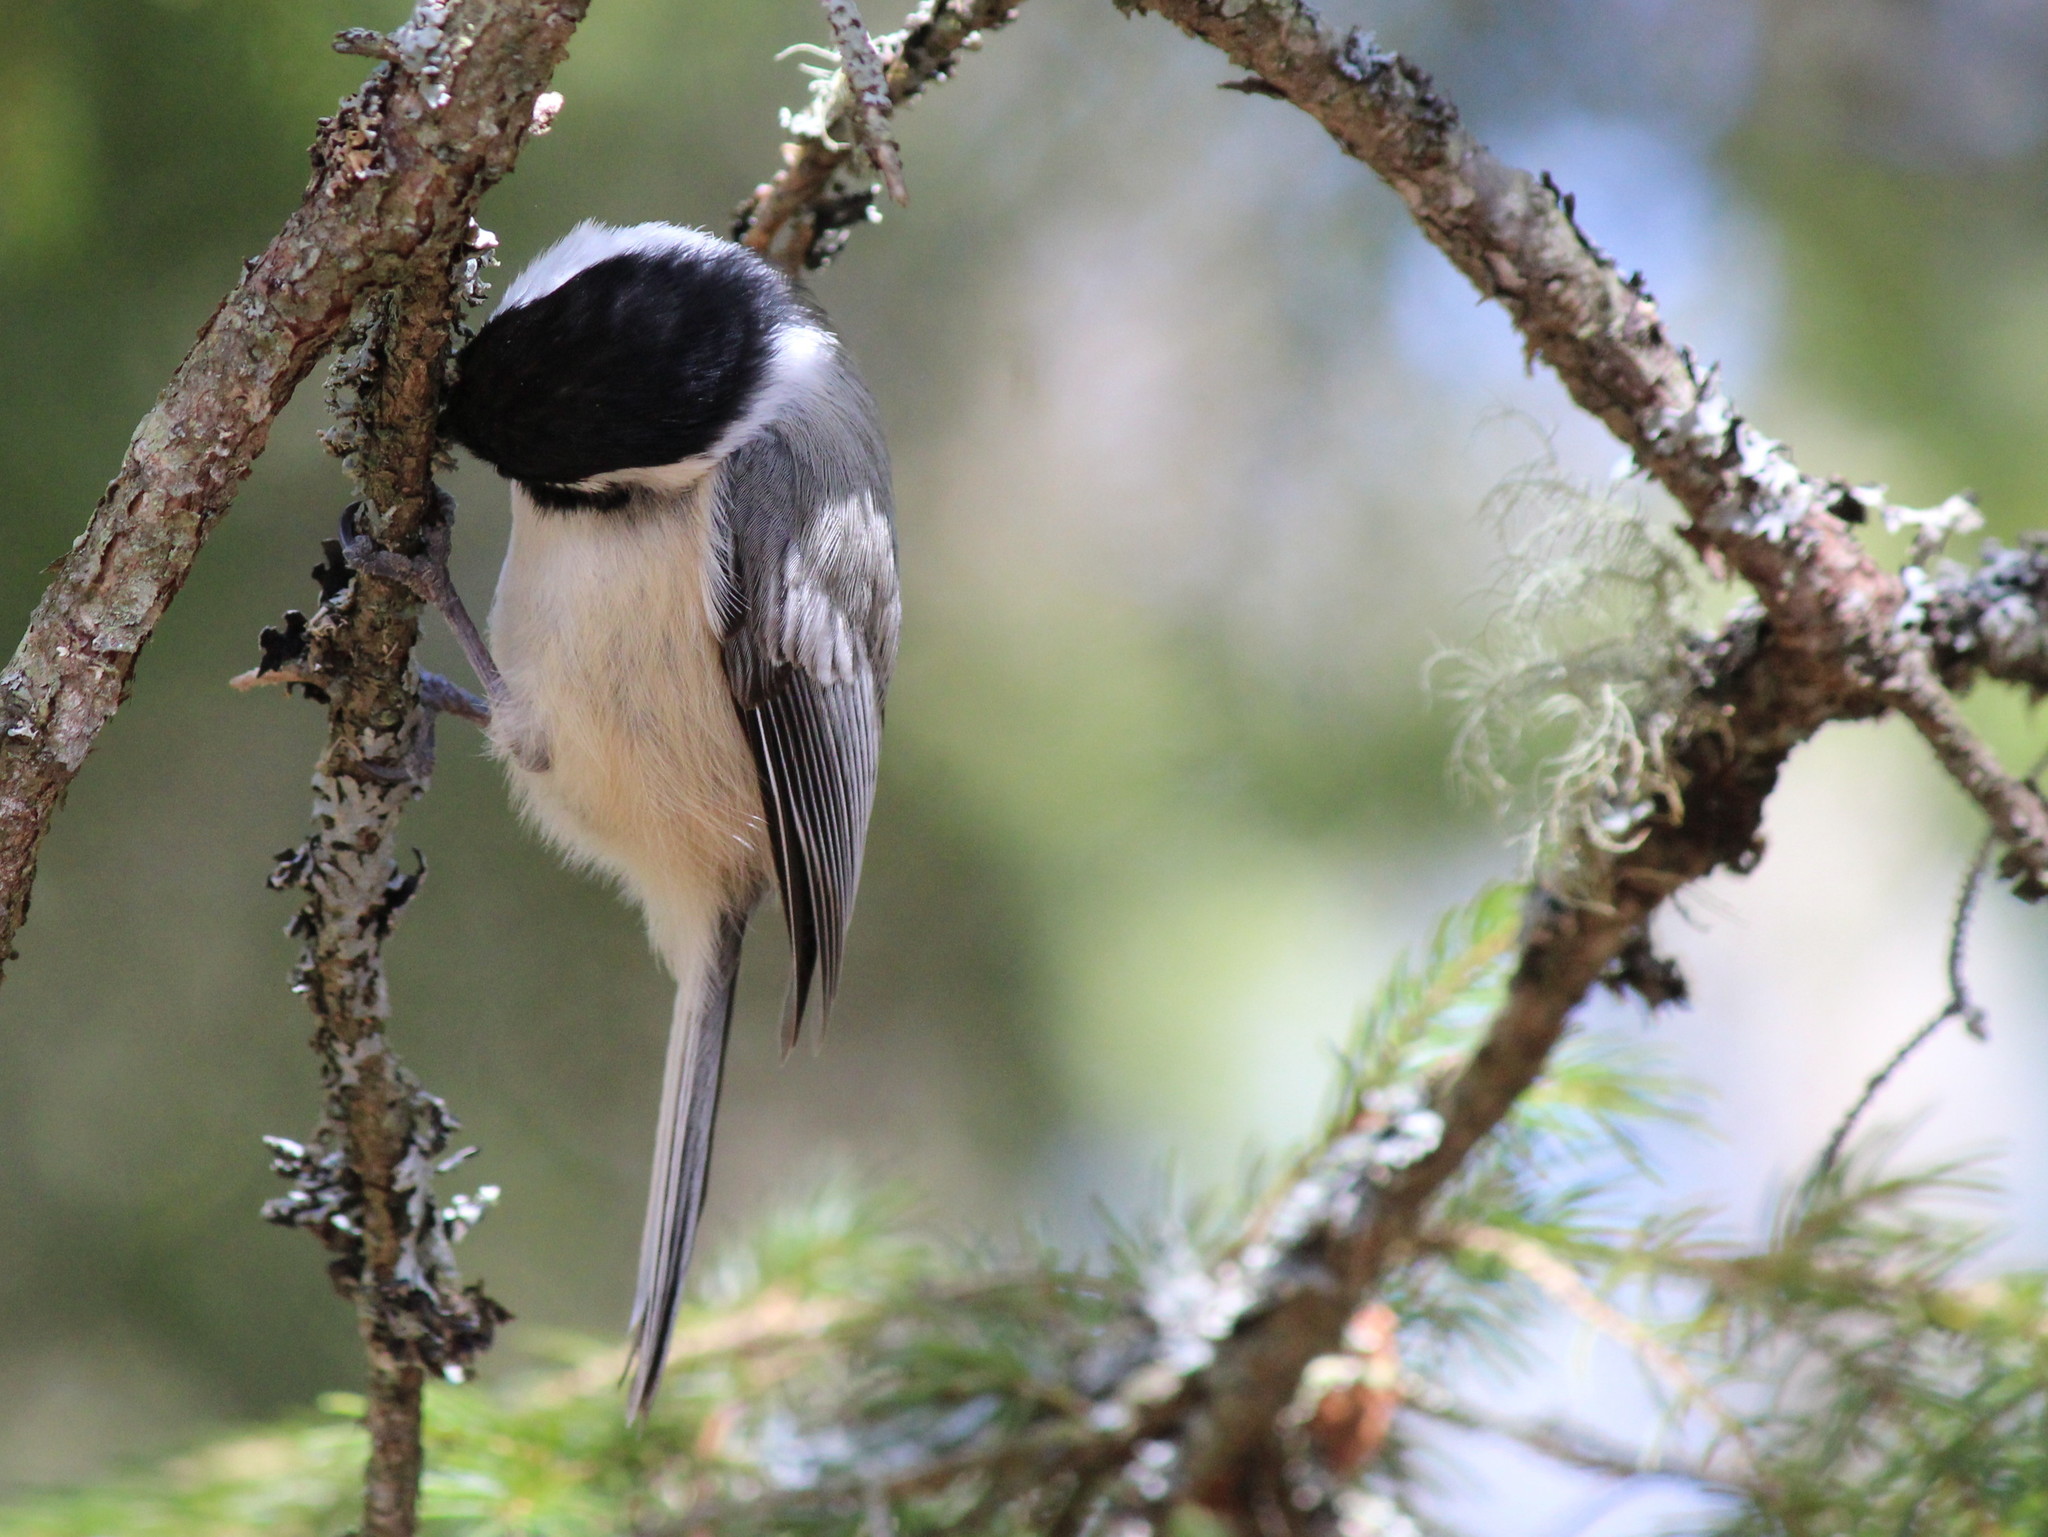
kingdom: Animalia
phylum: Chordata
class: Aves
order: Passeriformes
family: Paridae
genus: Poecile
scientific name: Poecile atricapillus
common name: Black-capped chickadee
